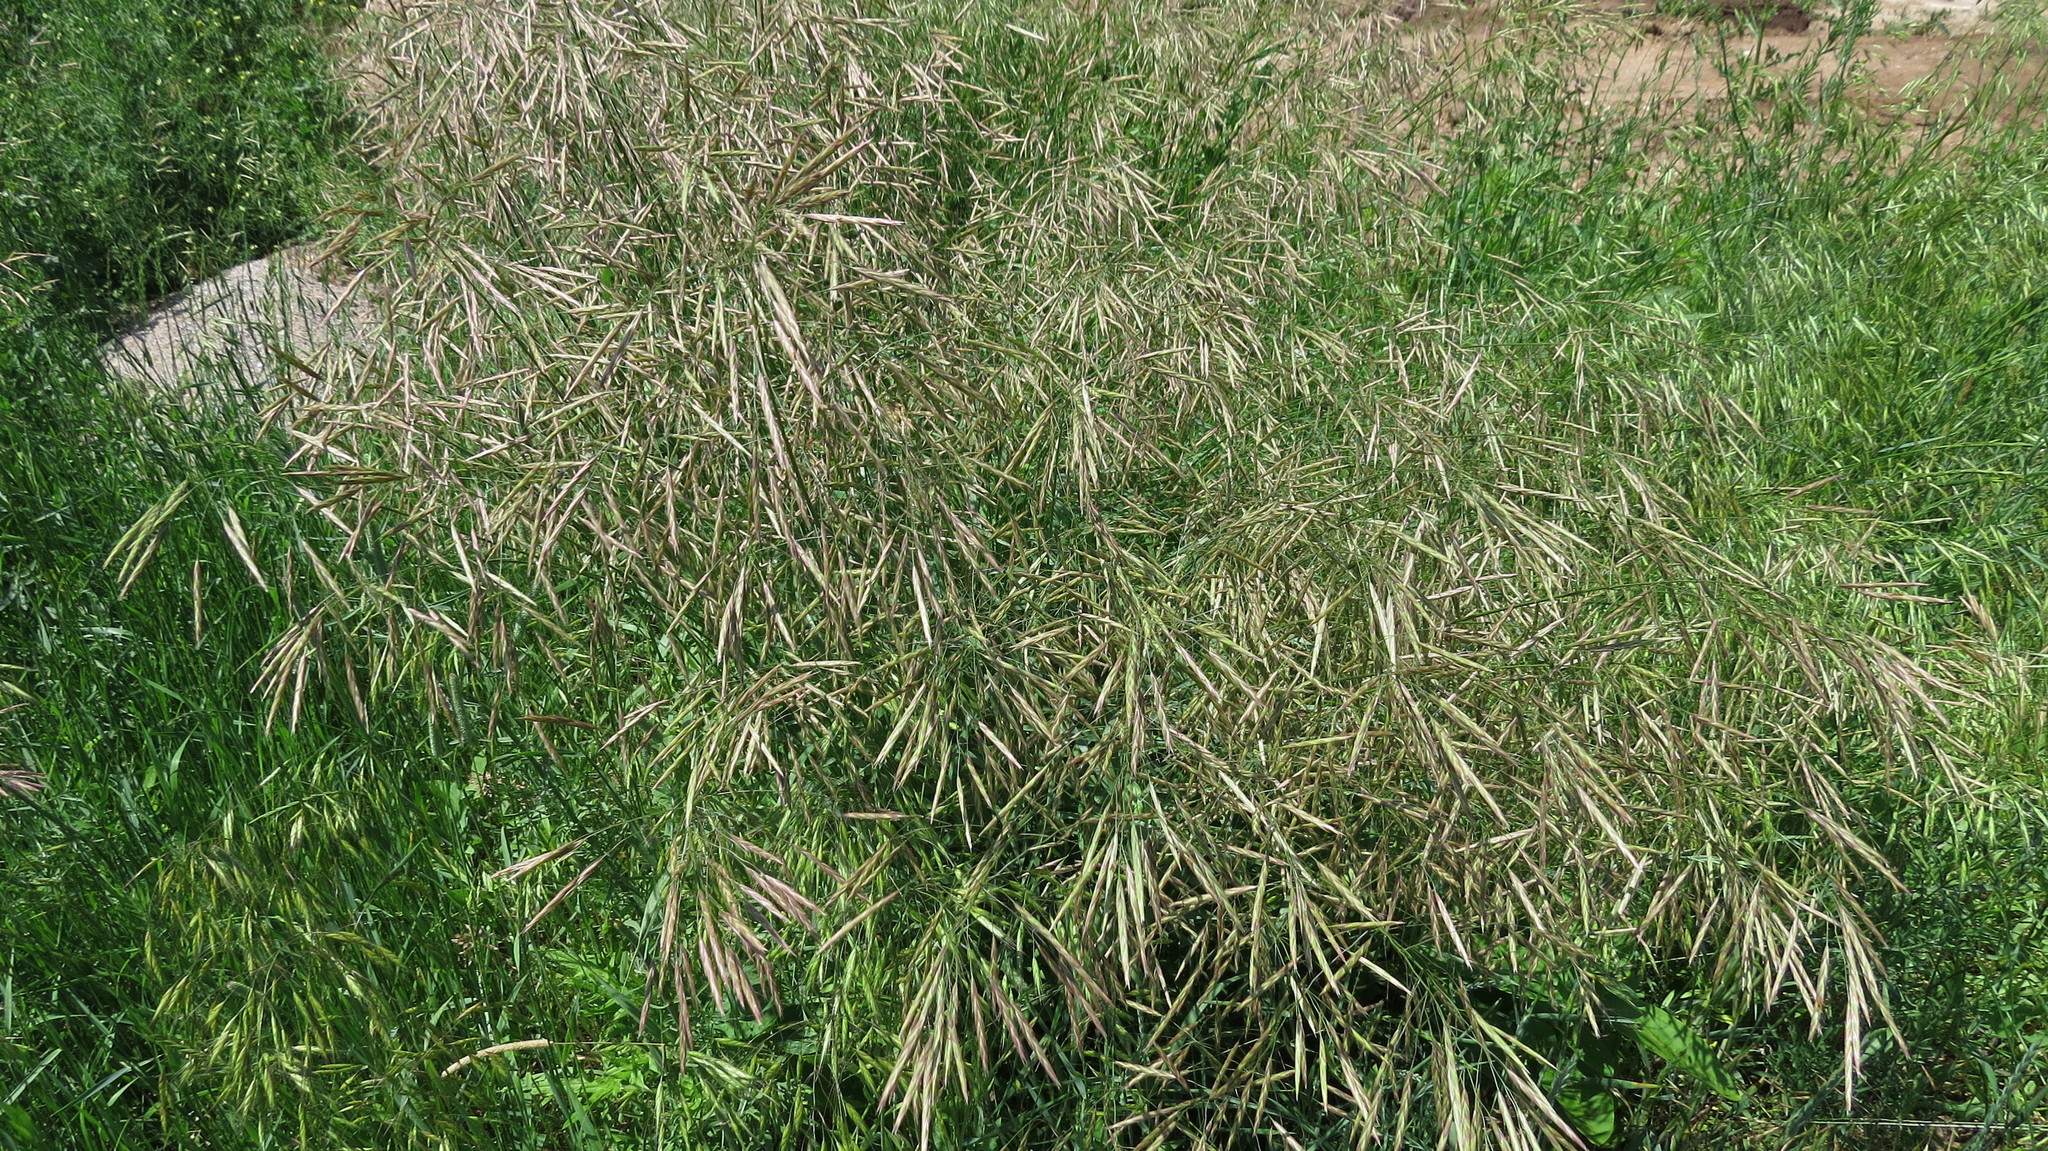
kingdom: Plantae
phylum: Tracheophyta
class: Liliopsida
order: Poales
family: Poaceae
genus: Bromus
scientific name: Bromus inermis
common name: Smooth brome
